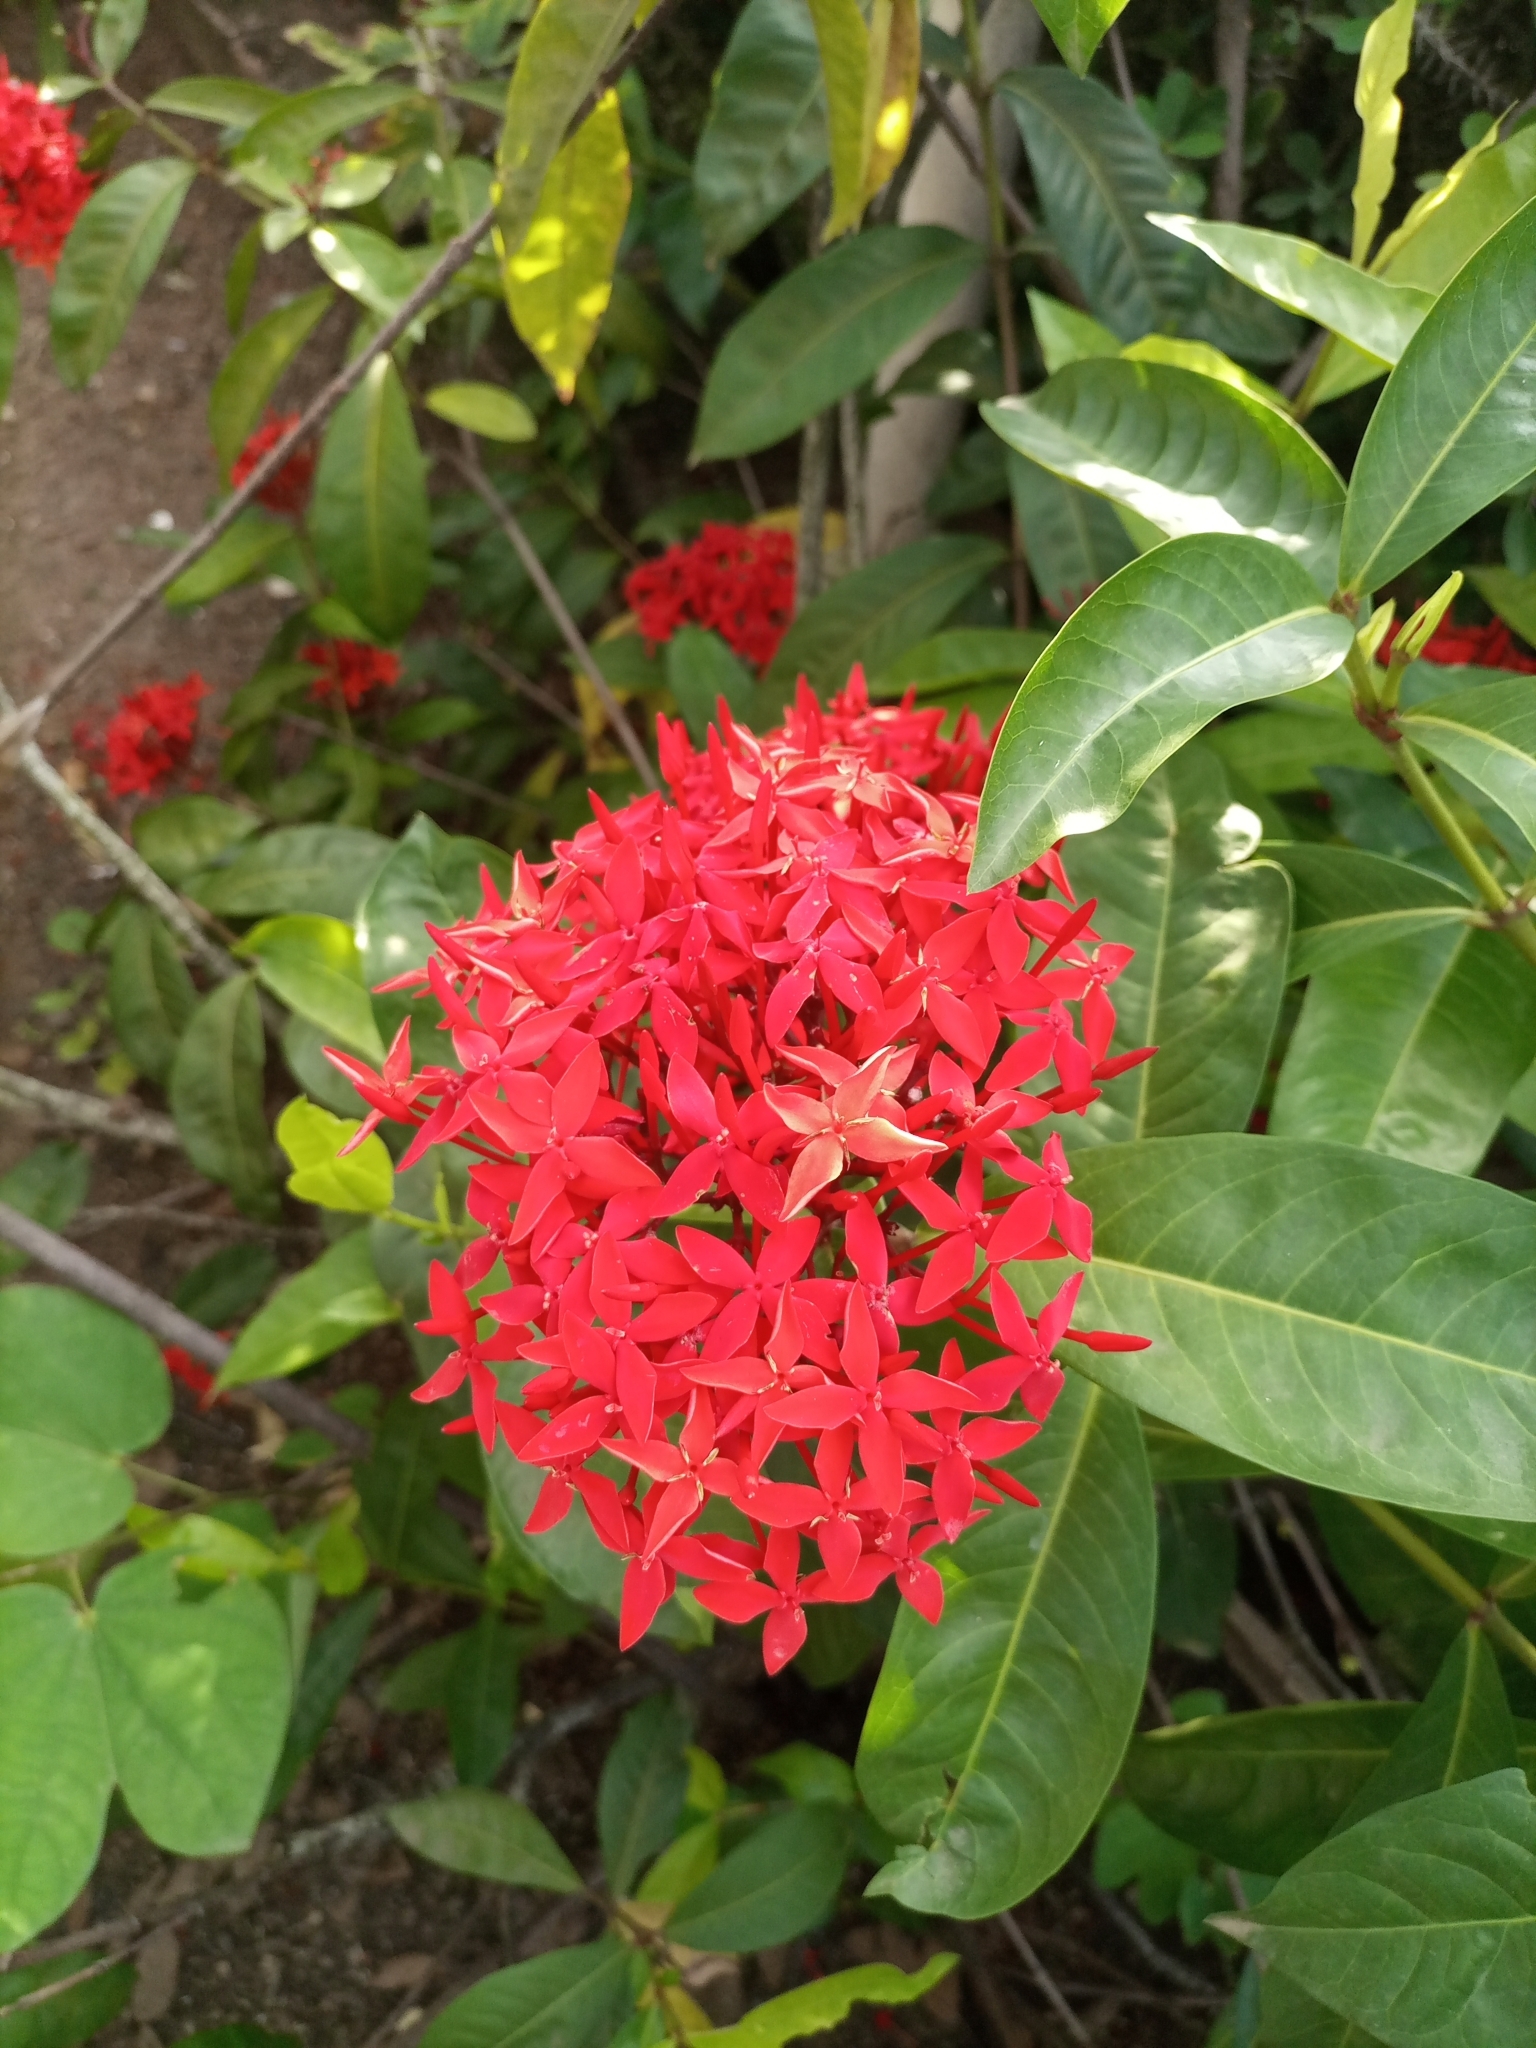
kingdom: Plantae
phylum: Tracheophyta
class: Magnoliopsida
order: Gentianales
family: Rubiaceae
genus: Ixora
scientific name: Ixora coccinea
